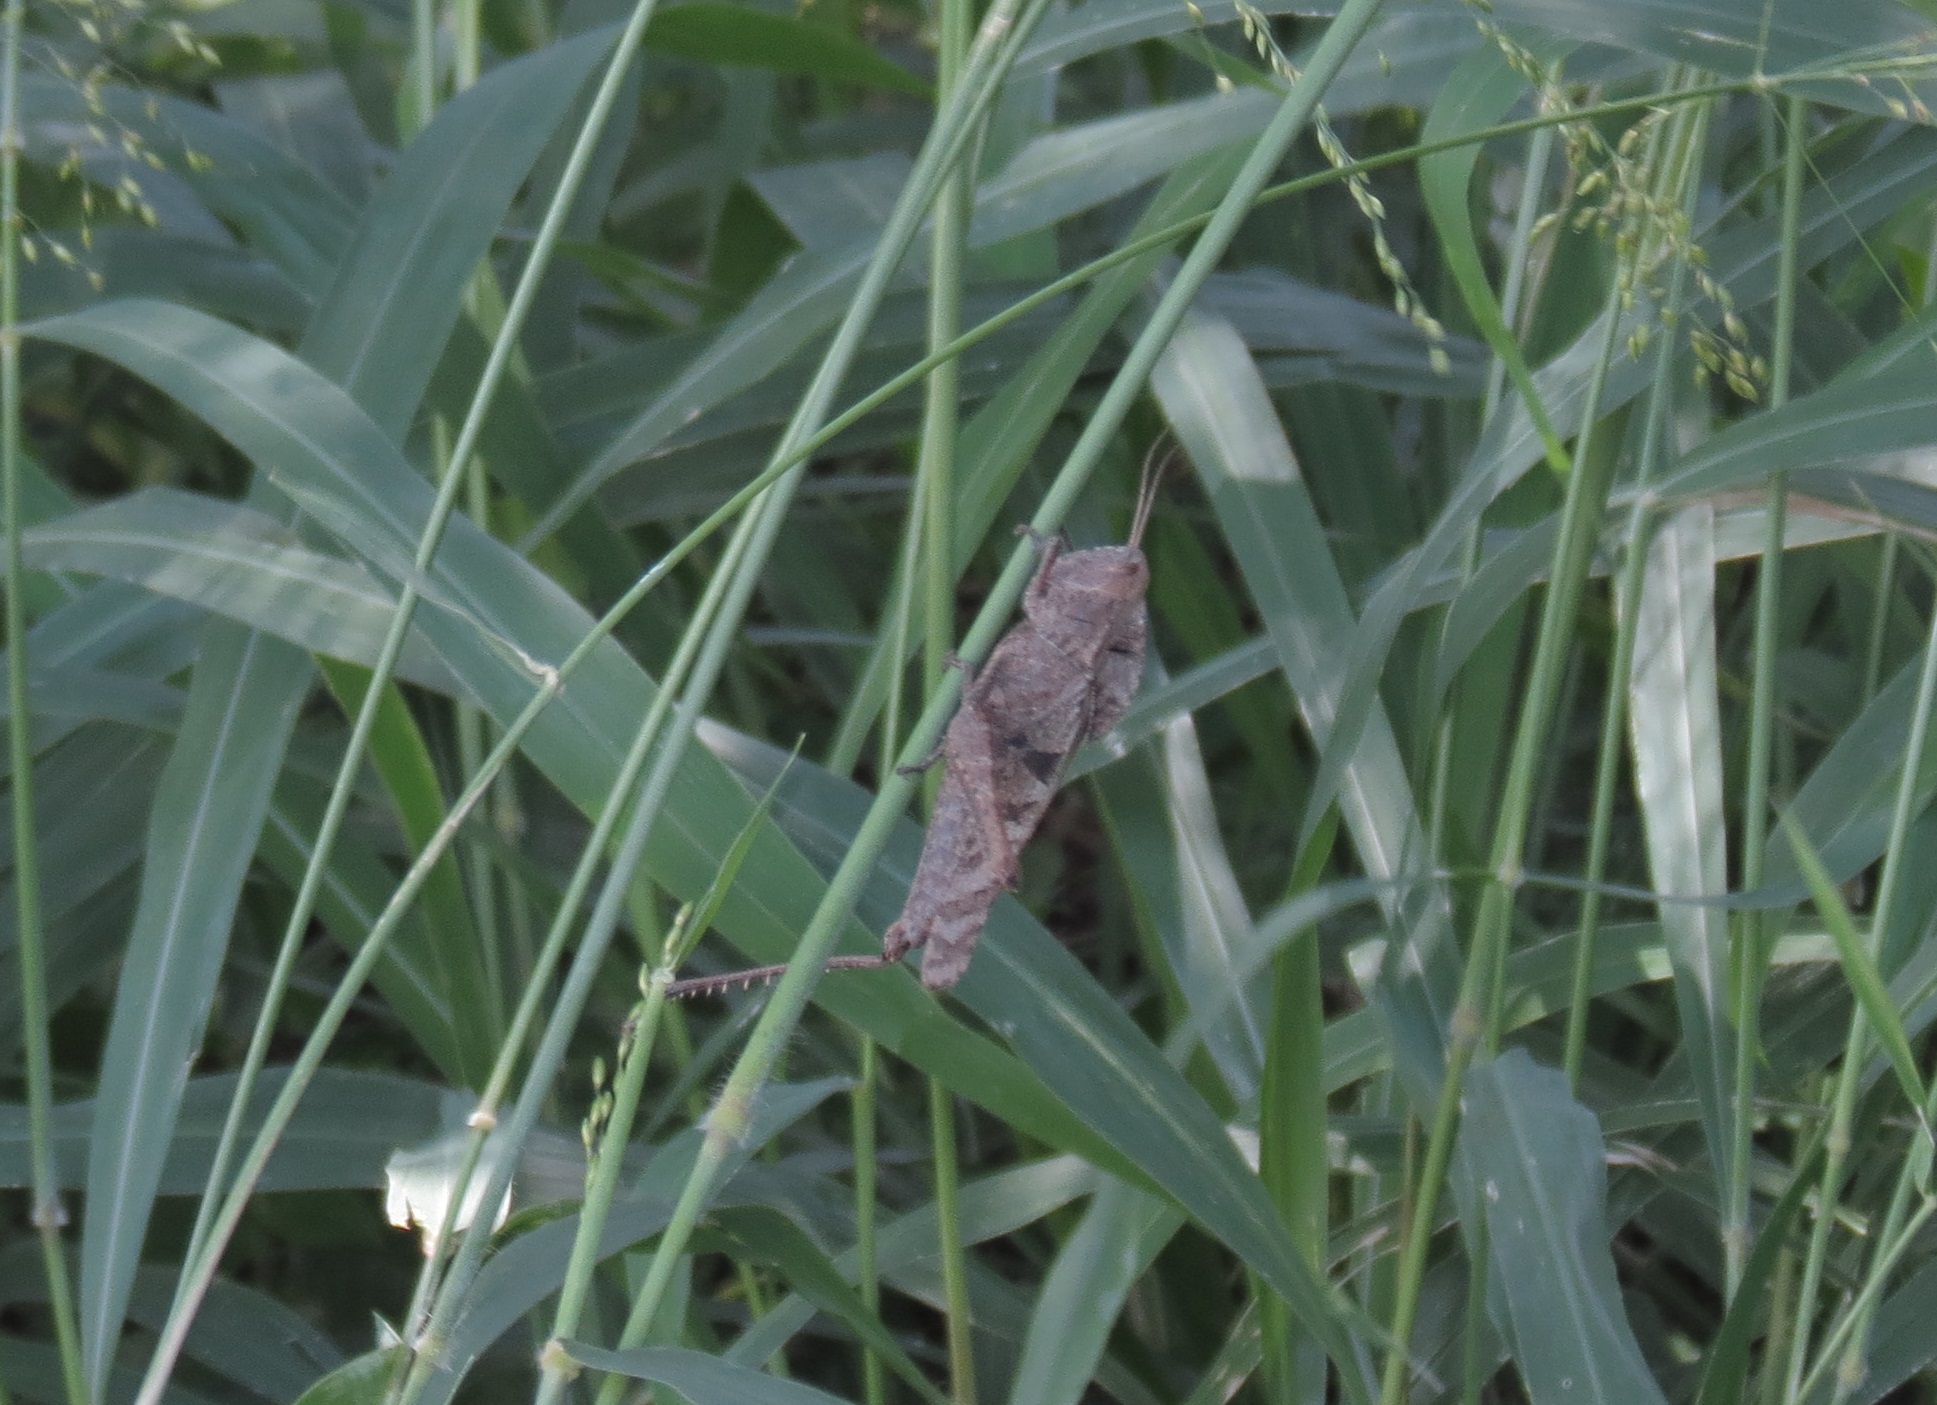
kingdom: Animalia
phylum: Arthropoda
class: Insecta
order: Orthoptera
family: Romaleidae
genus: Xyleus
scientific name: Xyleus discoideus
